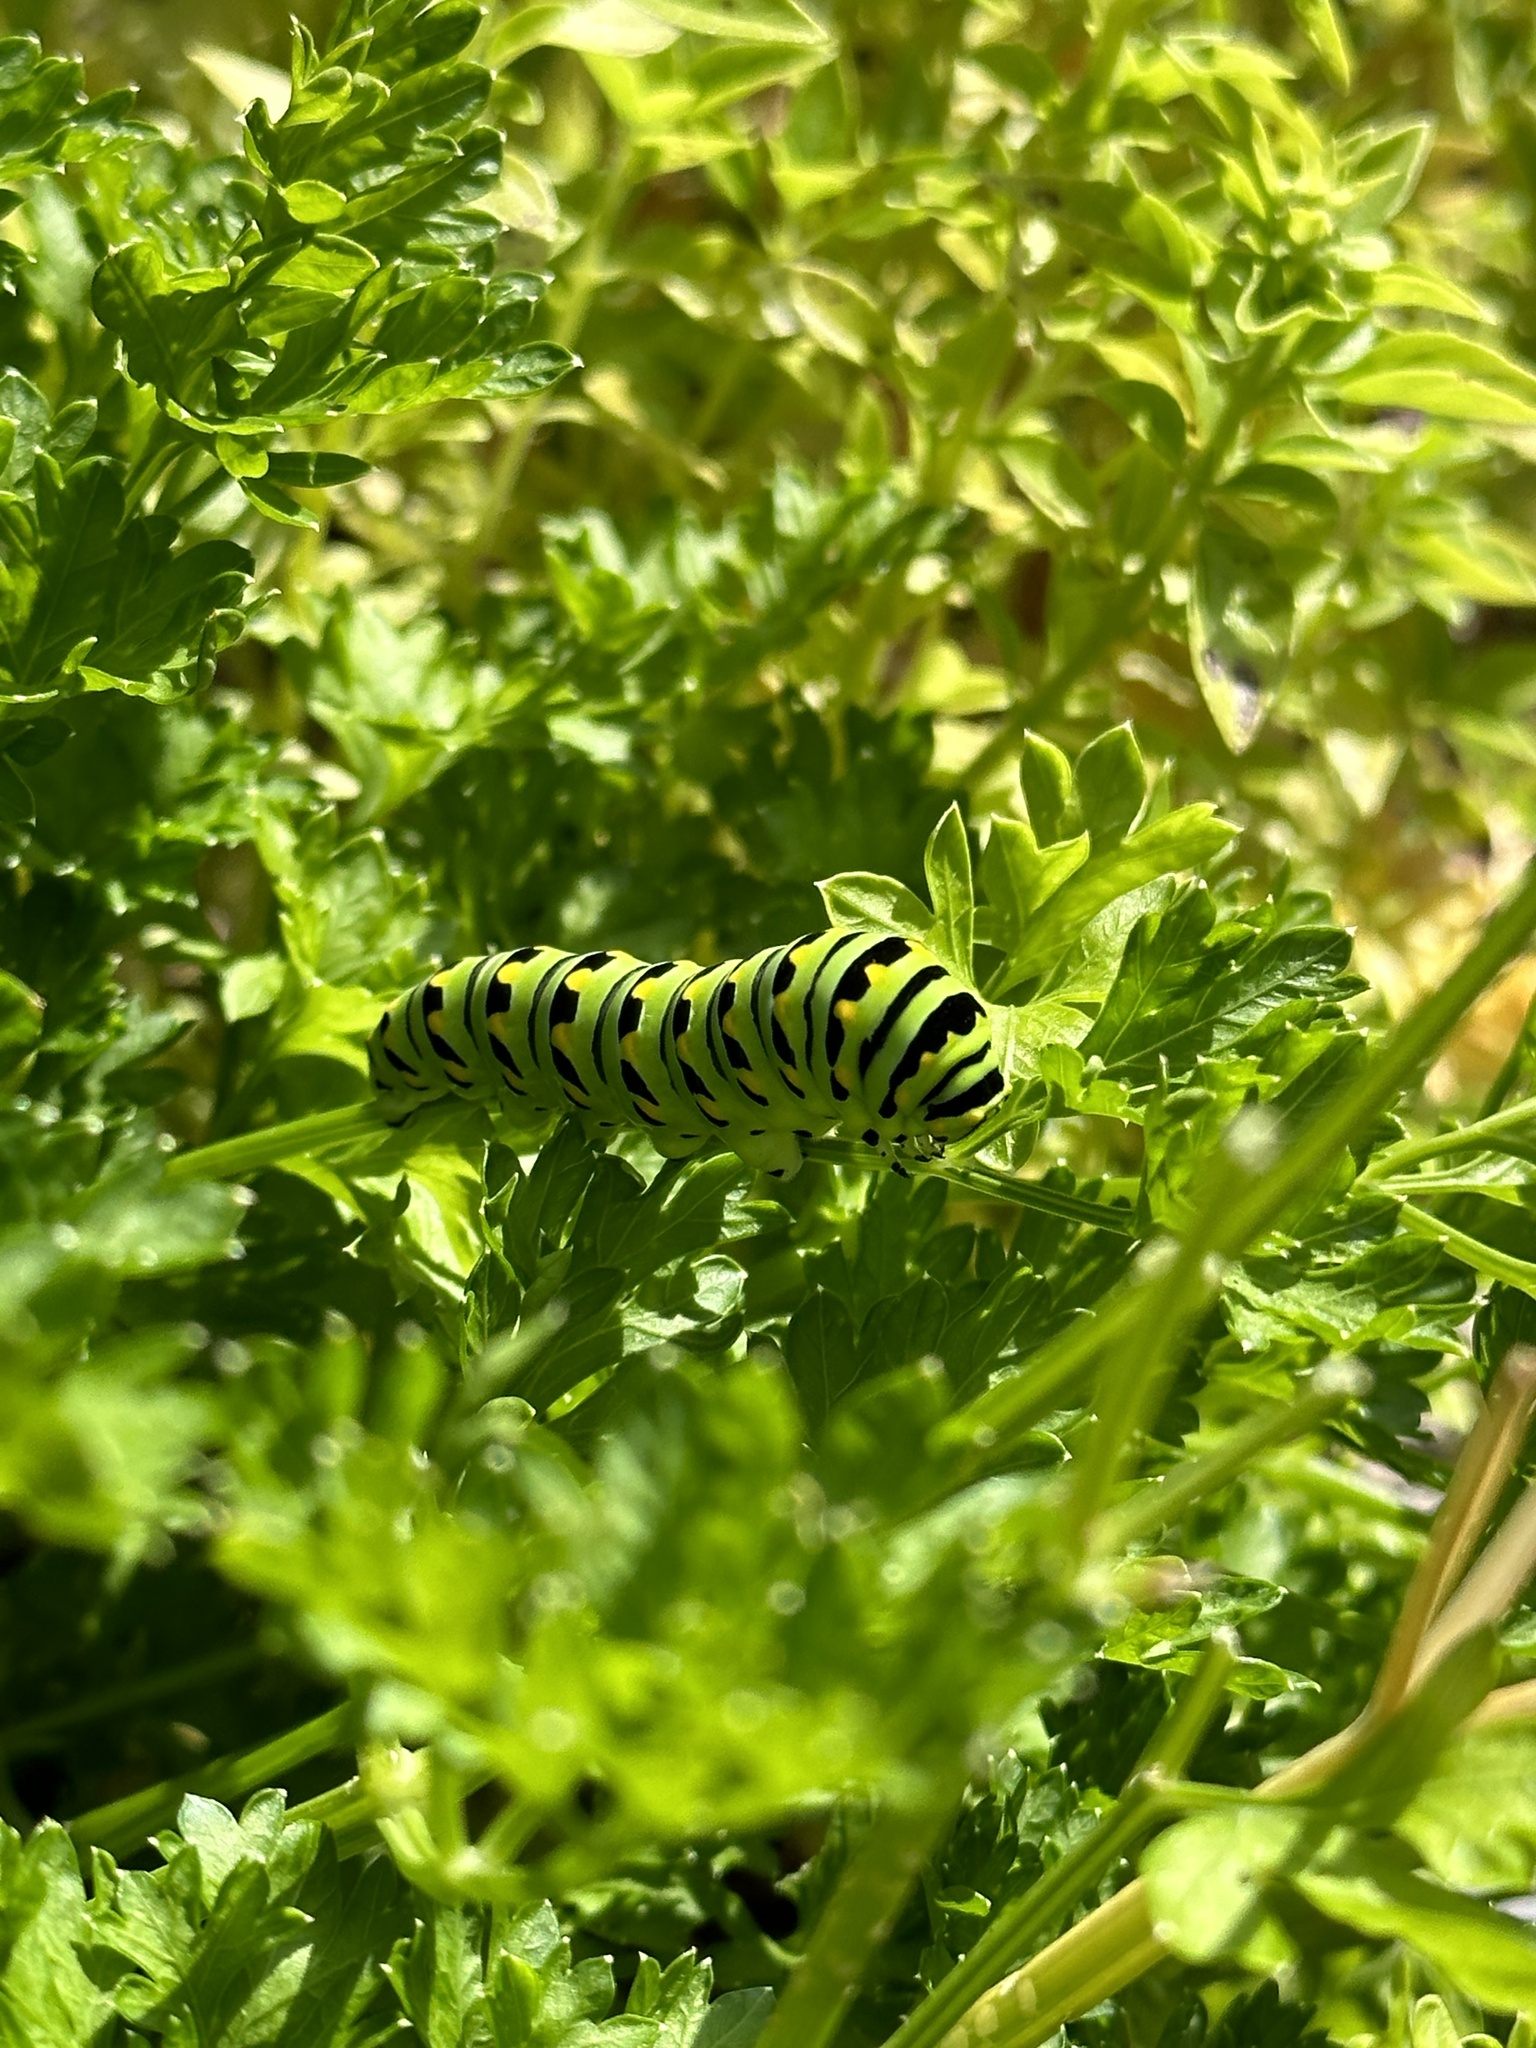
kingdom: Animalia
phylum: Arthropoda
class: Insecta
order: Lepidoptera
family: Papilionidae
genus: Papilio
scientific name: Papilio polyxenes
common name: Black swallowtail
